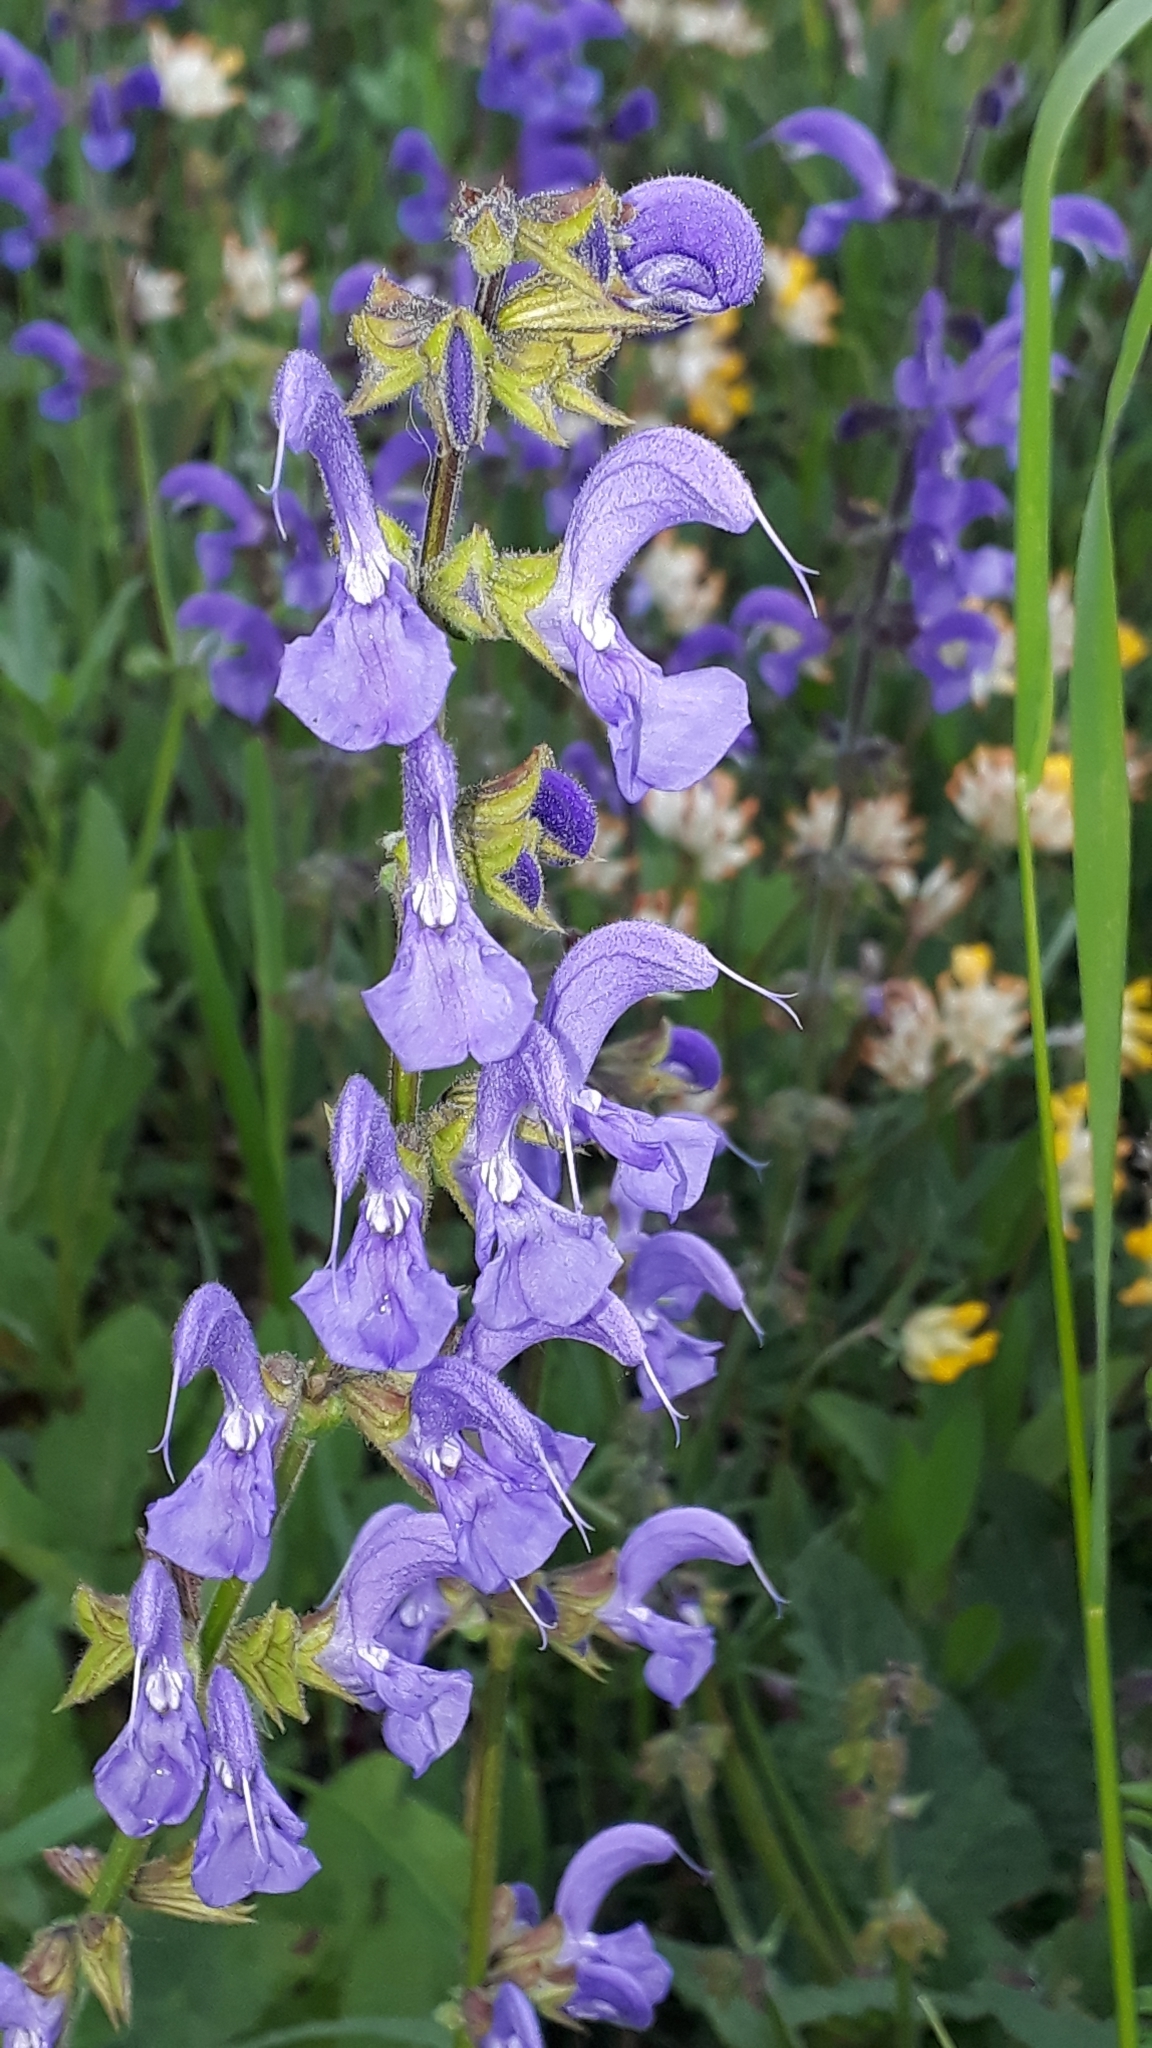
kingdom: Plantae
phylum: Tracheophyta
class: Magnoliopsida
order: Lamiales
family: Lamiaceae
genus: Salvia
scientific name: Salvia pratensis
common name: Meadow sage
